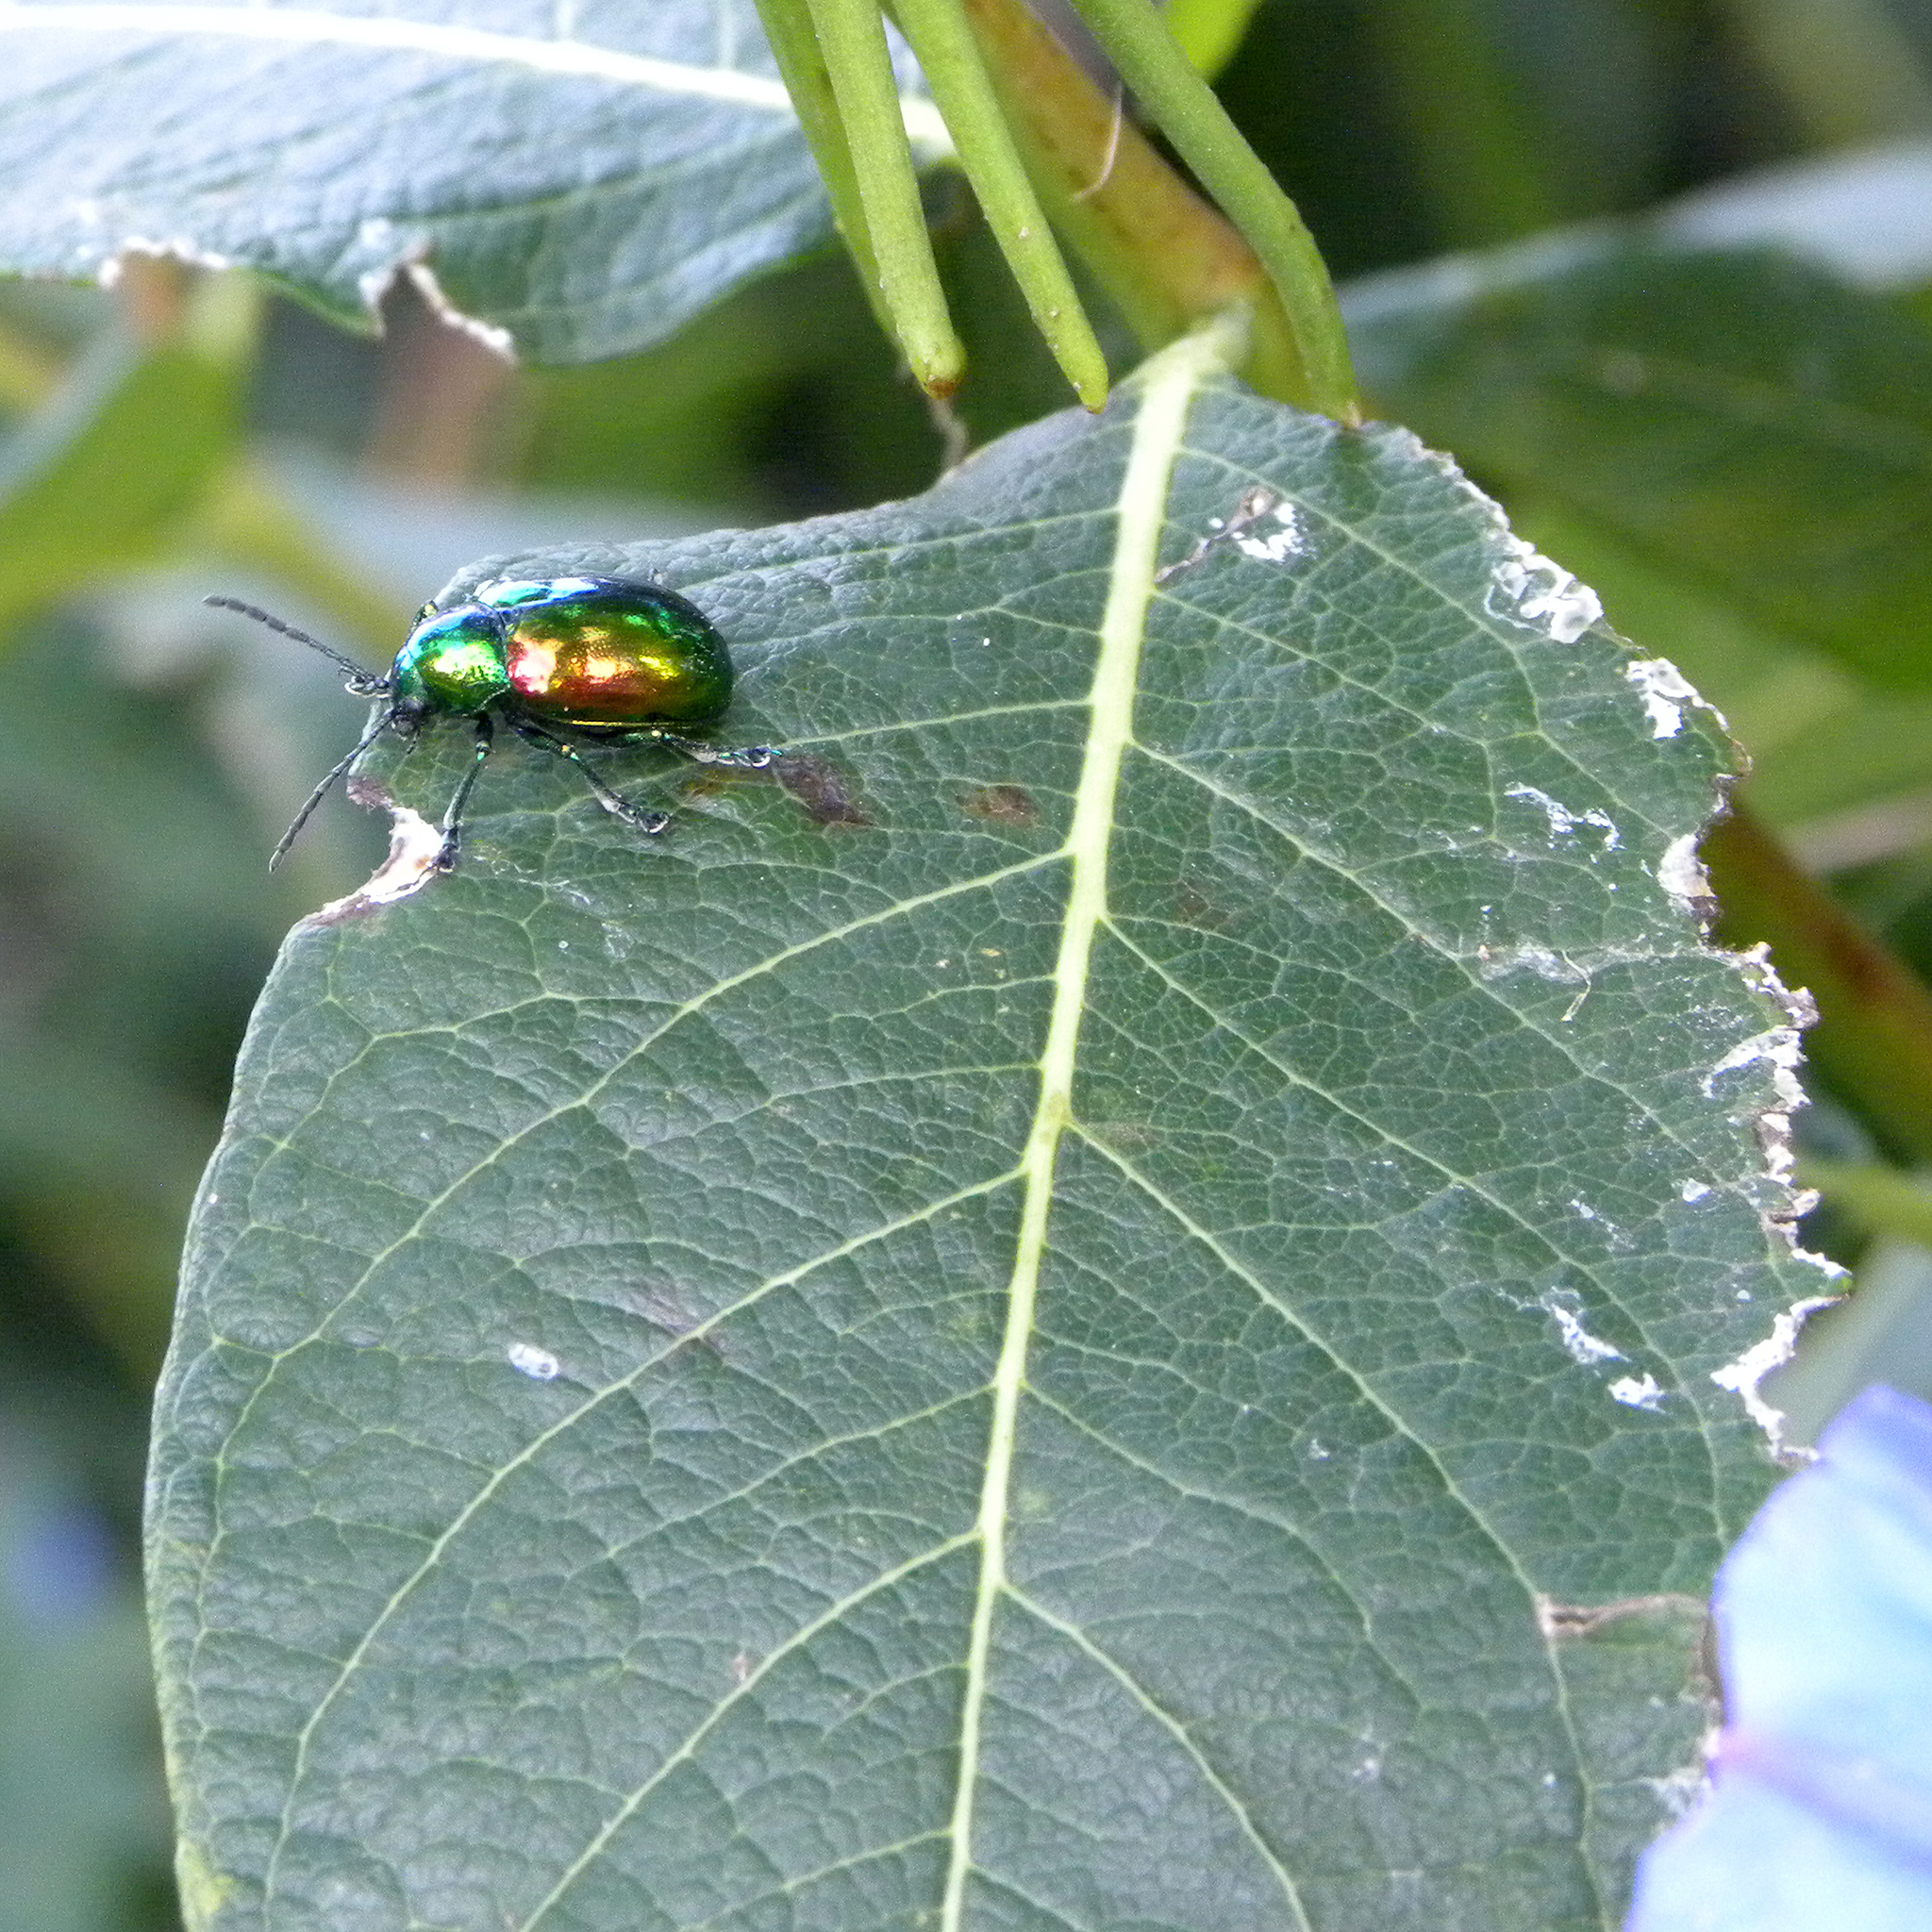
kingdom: Animalia
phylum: Arthropoda
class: Insecta
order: Coleoptera
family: Chrysomelidae
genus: Chrysochus
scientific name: Chrysochus auratus
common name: Dogbane leaf beetle
